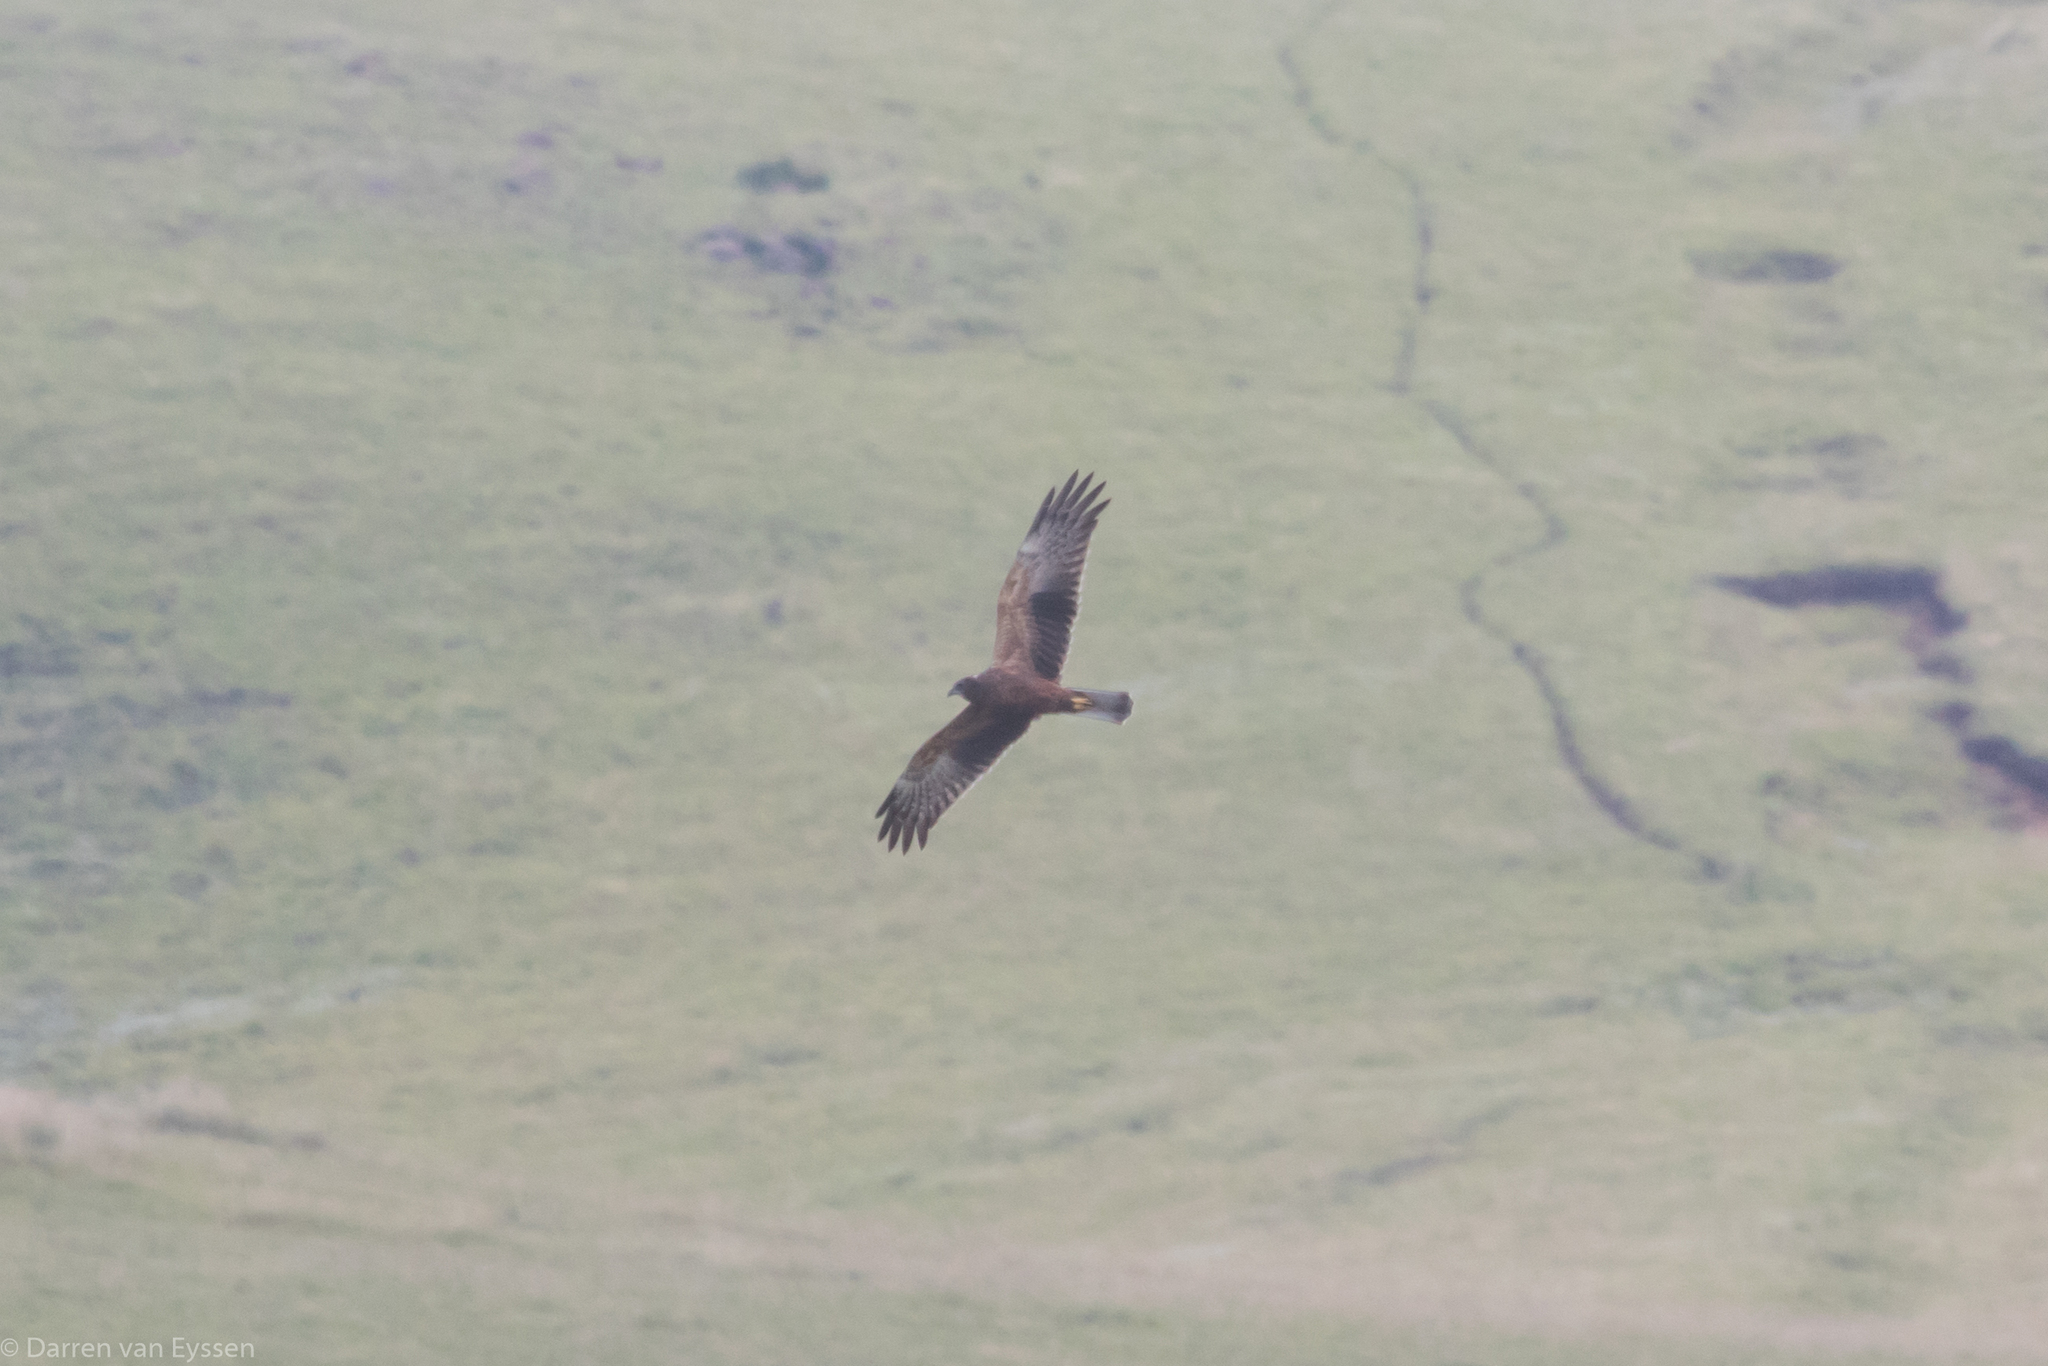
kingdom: Animalia
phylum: Chordata
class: Aves
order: Accipitriformes
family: Accipitridae
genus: Circus
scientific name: Circus ranivorus
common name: African marsh-harrier
